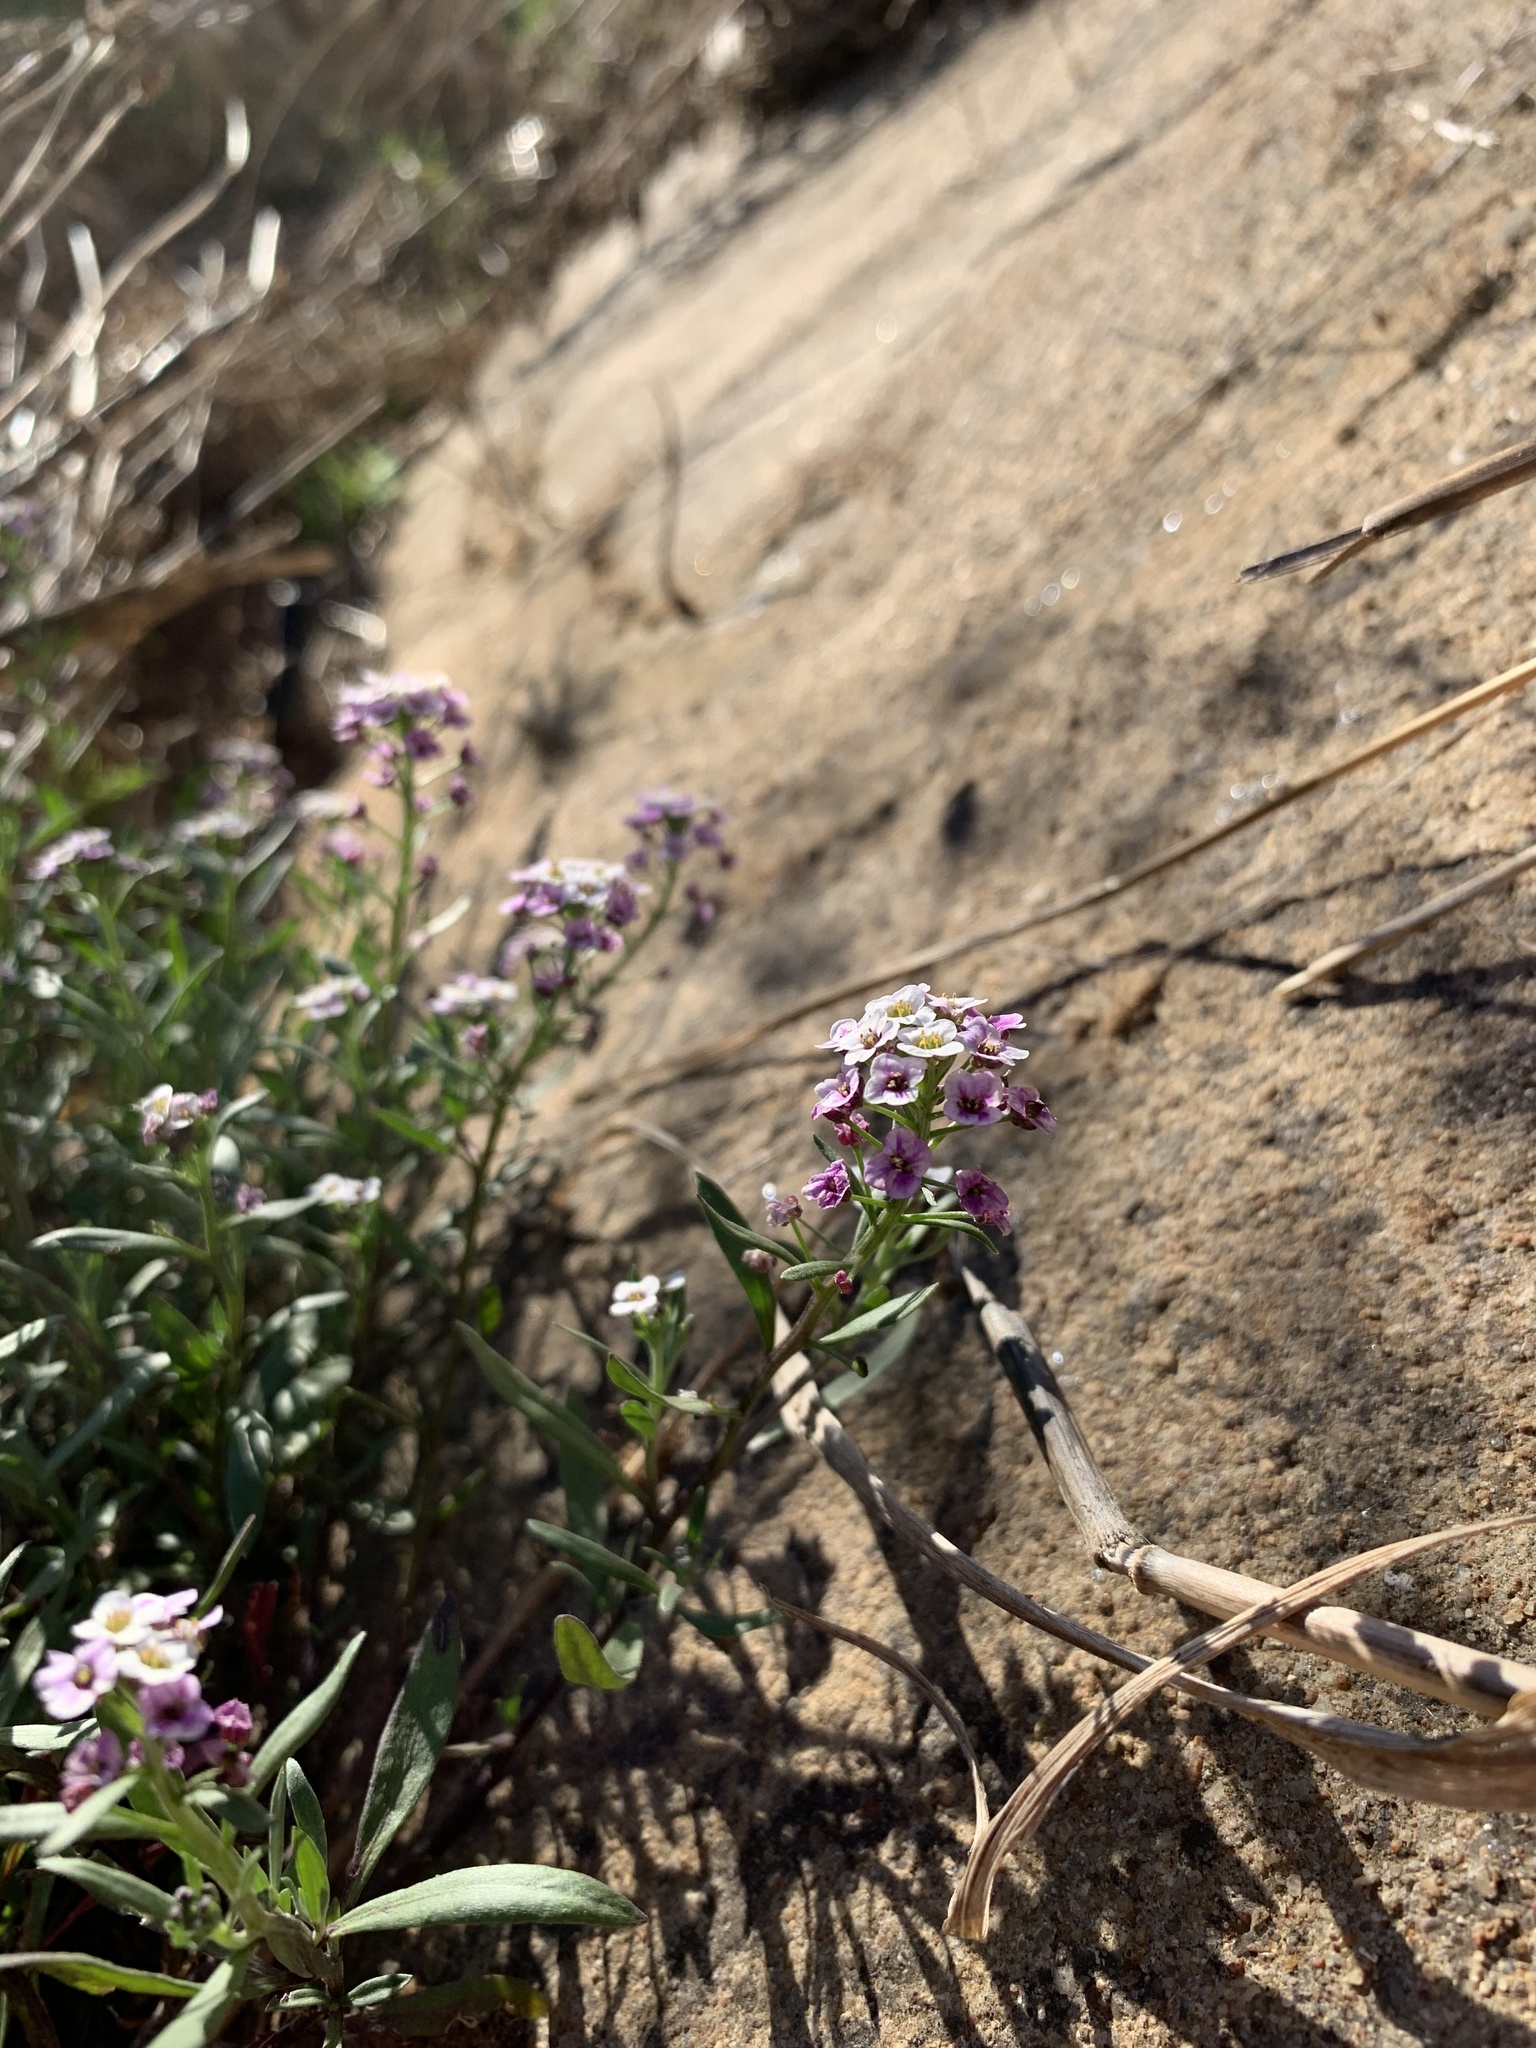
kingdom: Plantae
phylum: Tracheophyta
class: Magnoliopsida
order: Brassicales
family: Brassicaceae
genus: Lobularia
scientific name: Lobularia maritima
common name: Sweet alison
